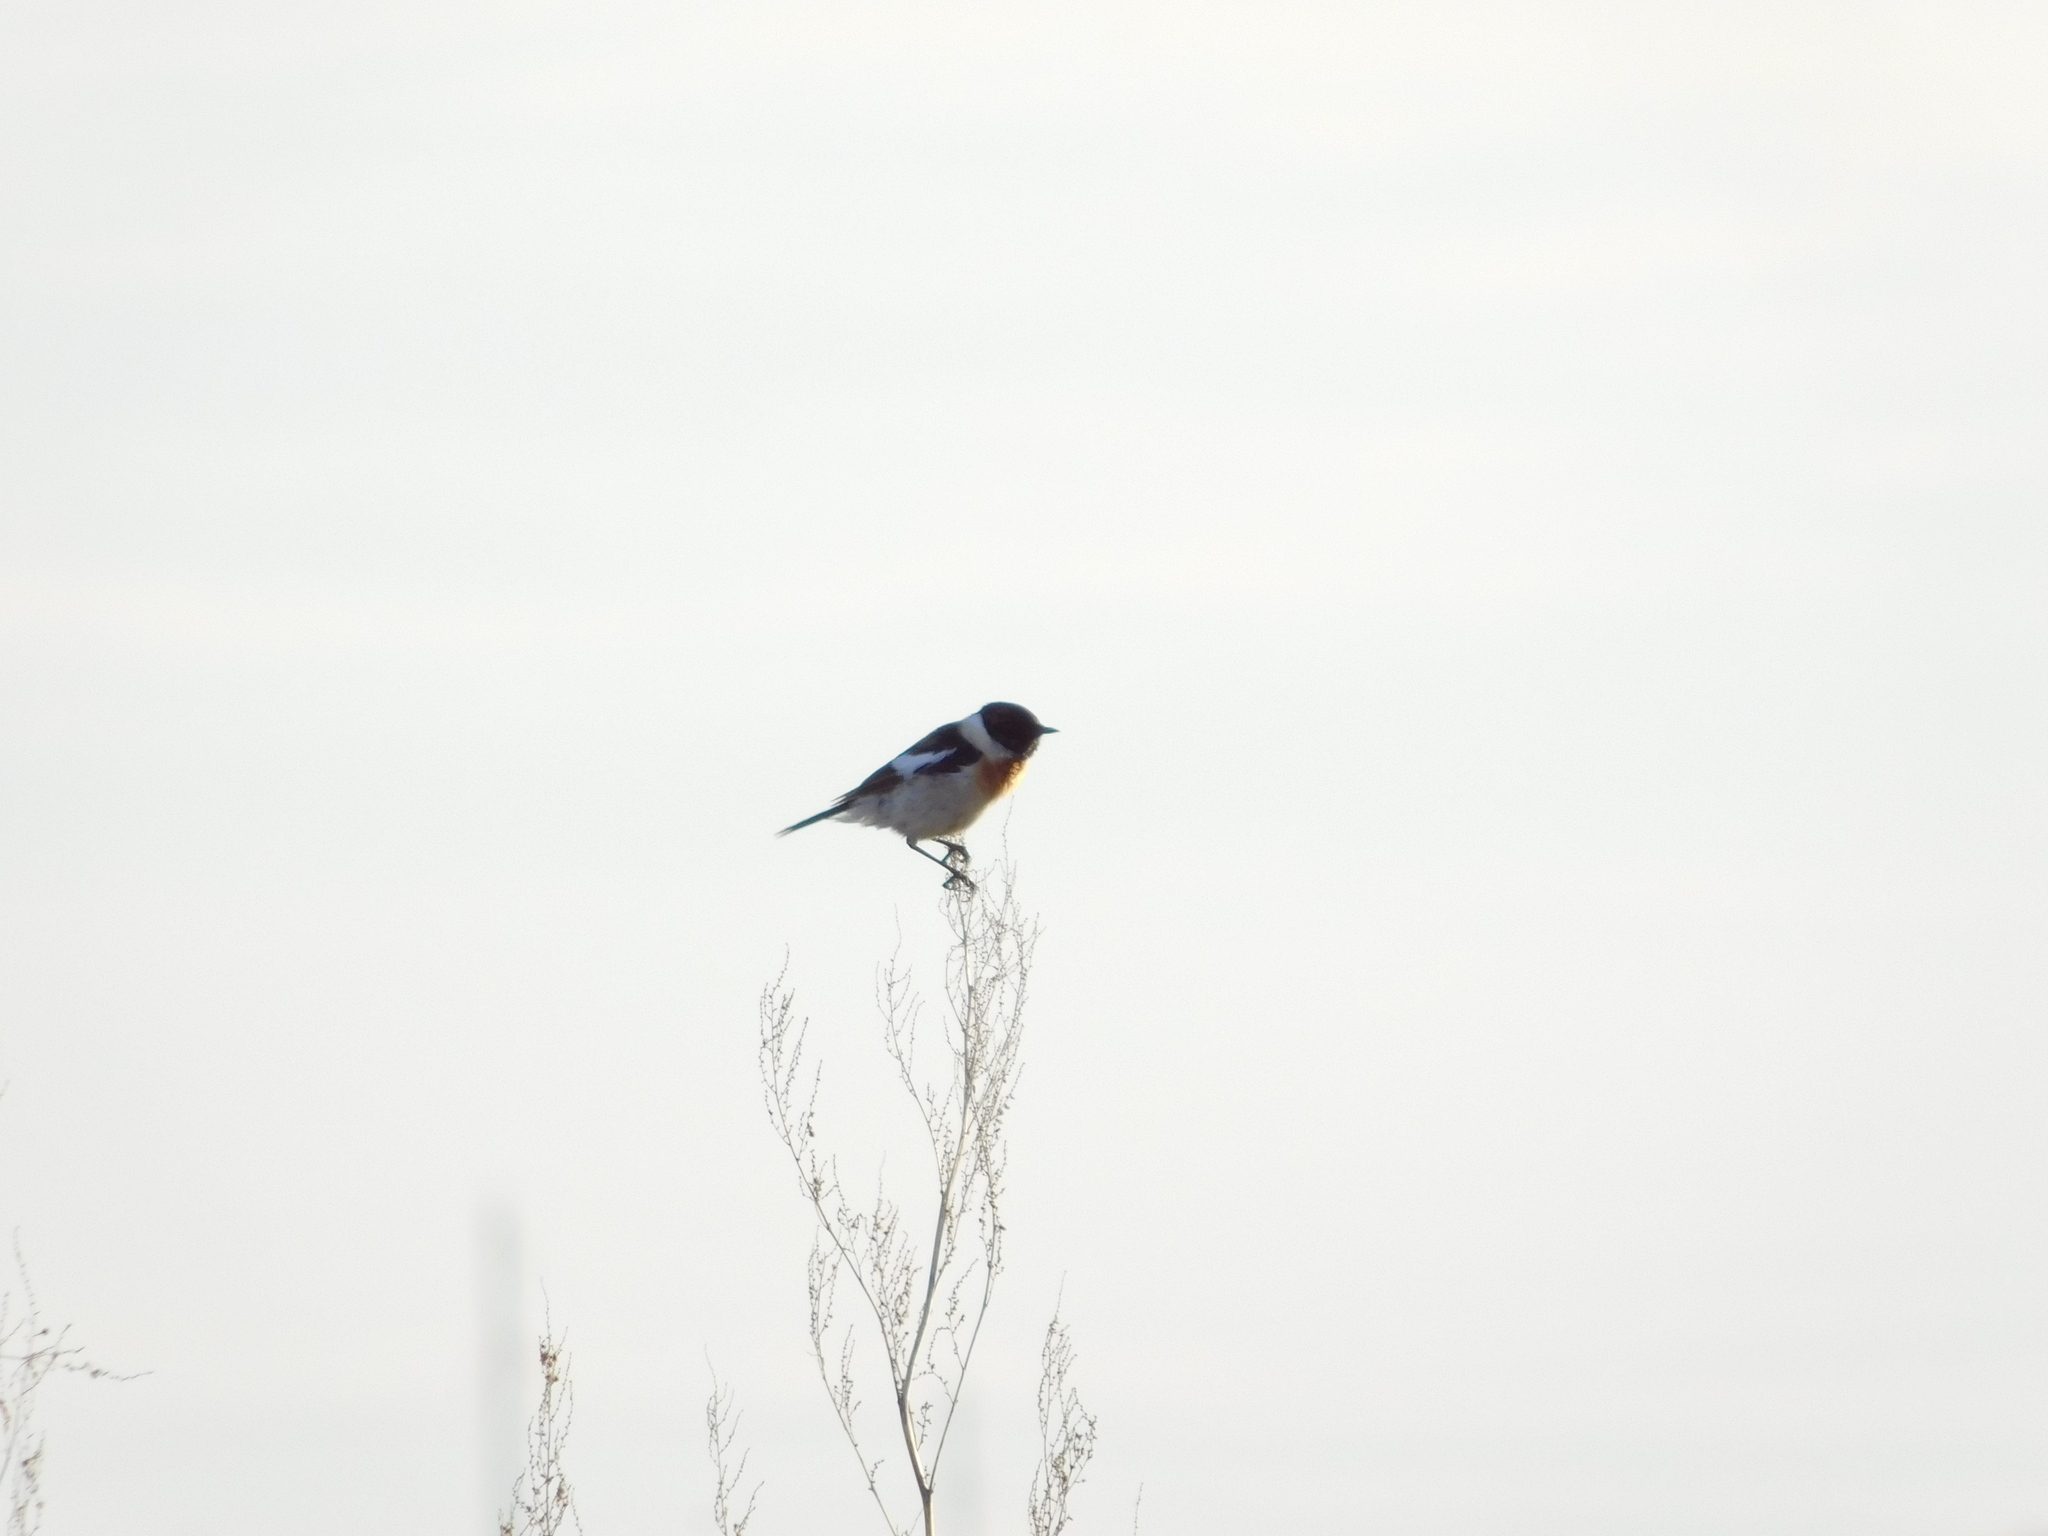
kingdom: Animalia
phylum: Chordata
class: Aves
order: Passeriformes
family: Muscicapidae
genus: Saxicola
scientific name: Saxicola maurus
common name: Siberian stonechat
